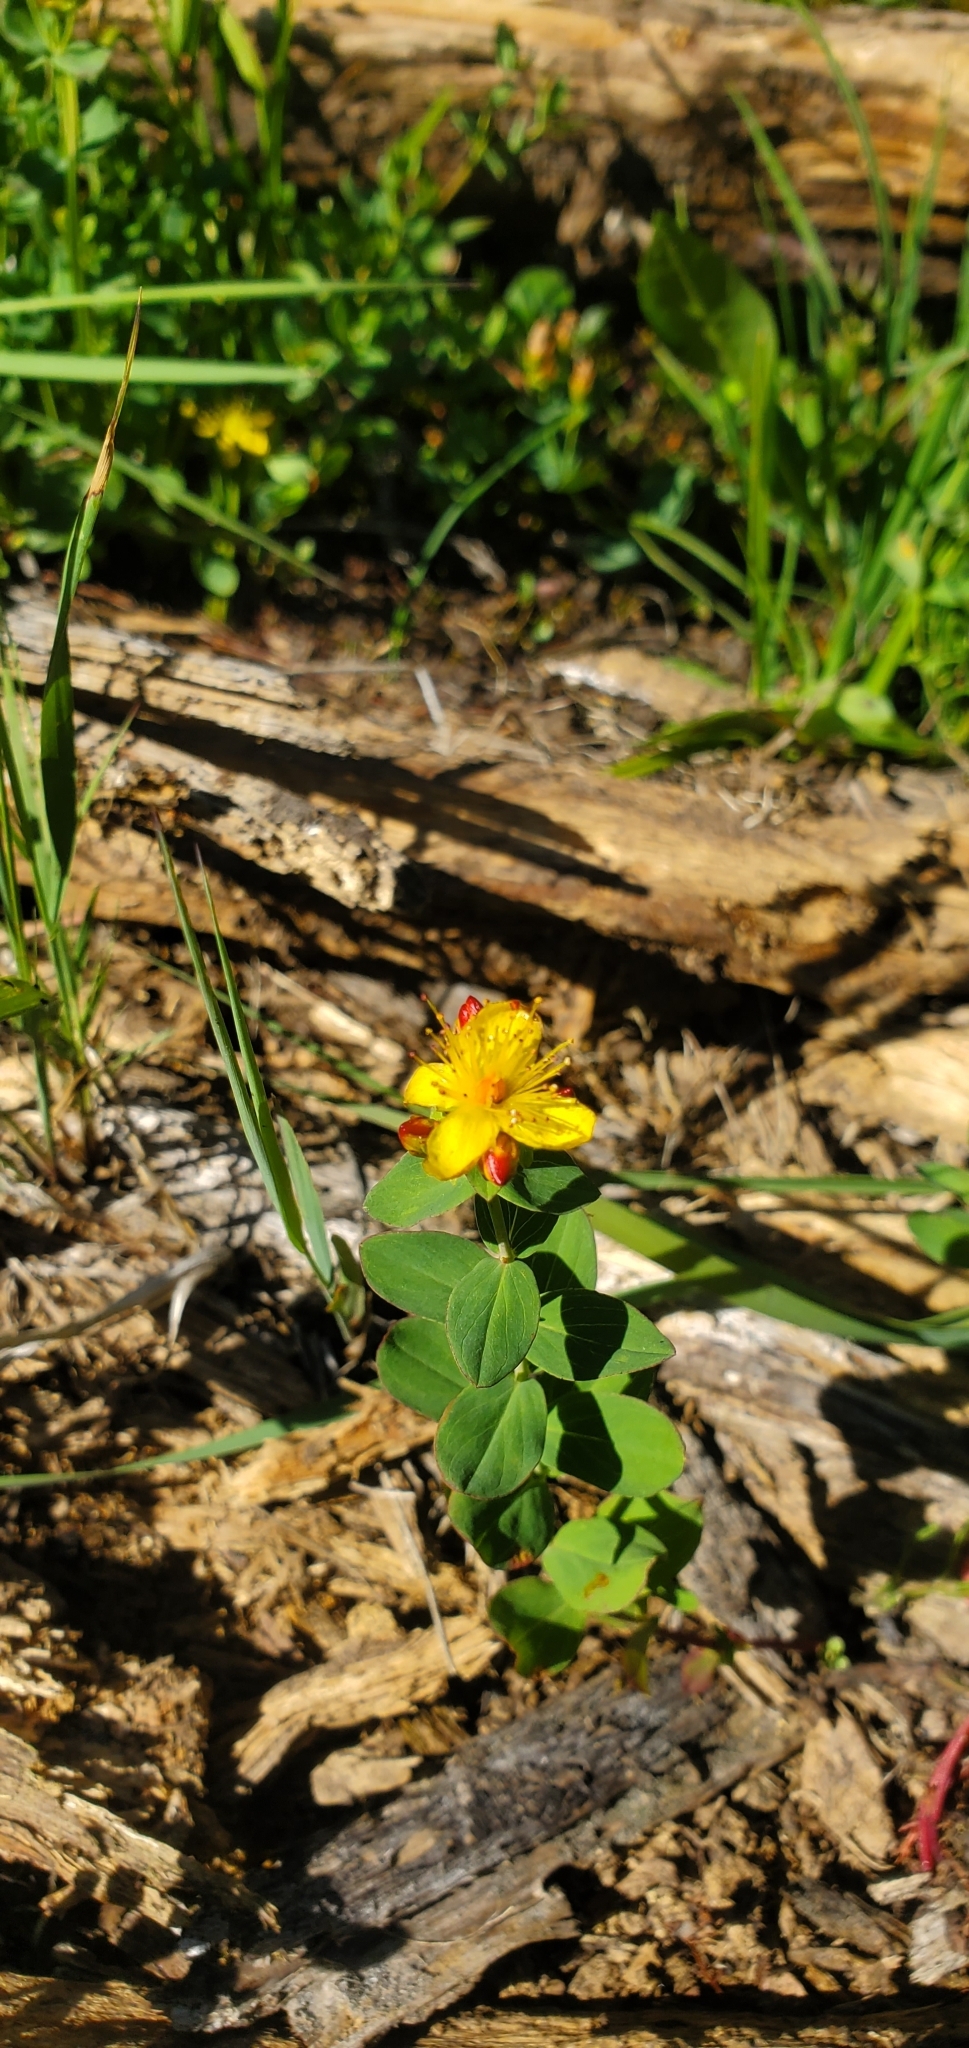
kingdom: Plantae
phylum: Tracheophyta
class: Magnoliopsida
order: Malpighiales
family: Hypericaceae
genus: Hypericum
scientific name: Hypericum scouleri
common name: Scouler's st. john's-wort
